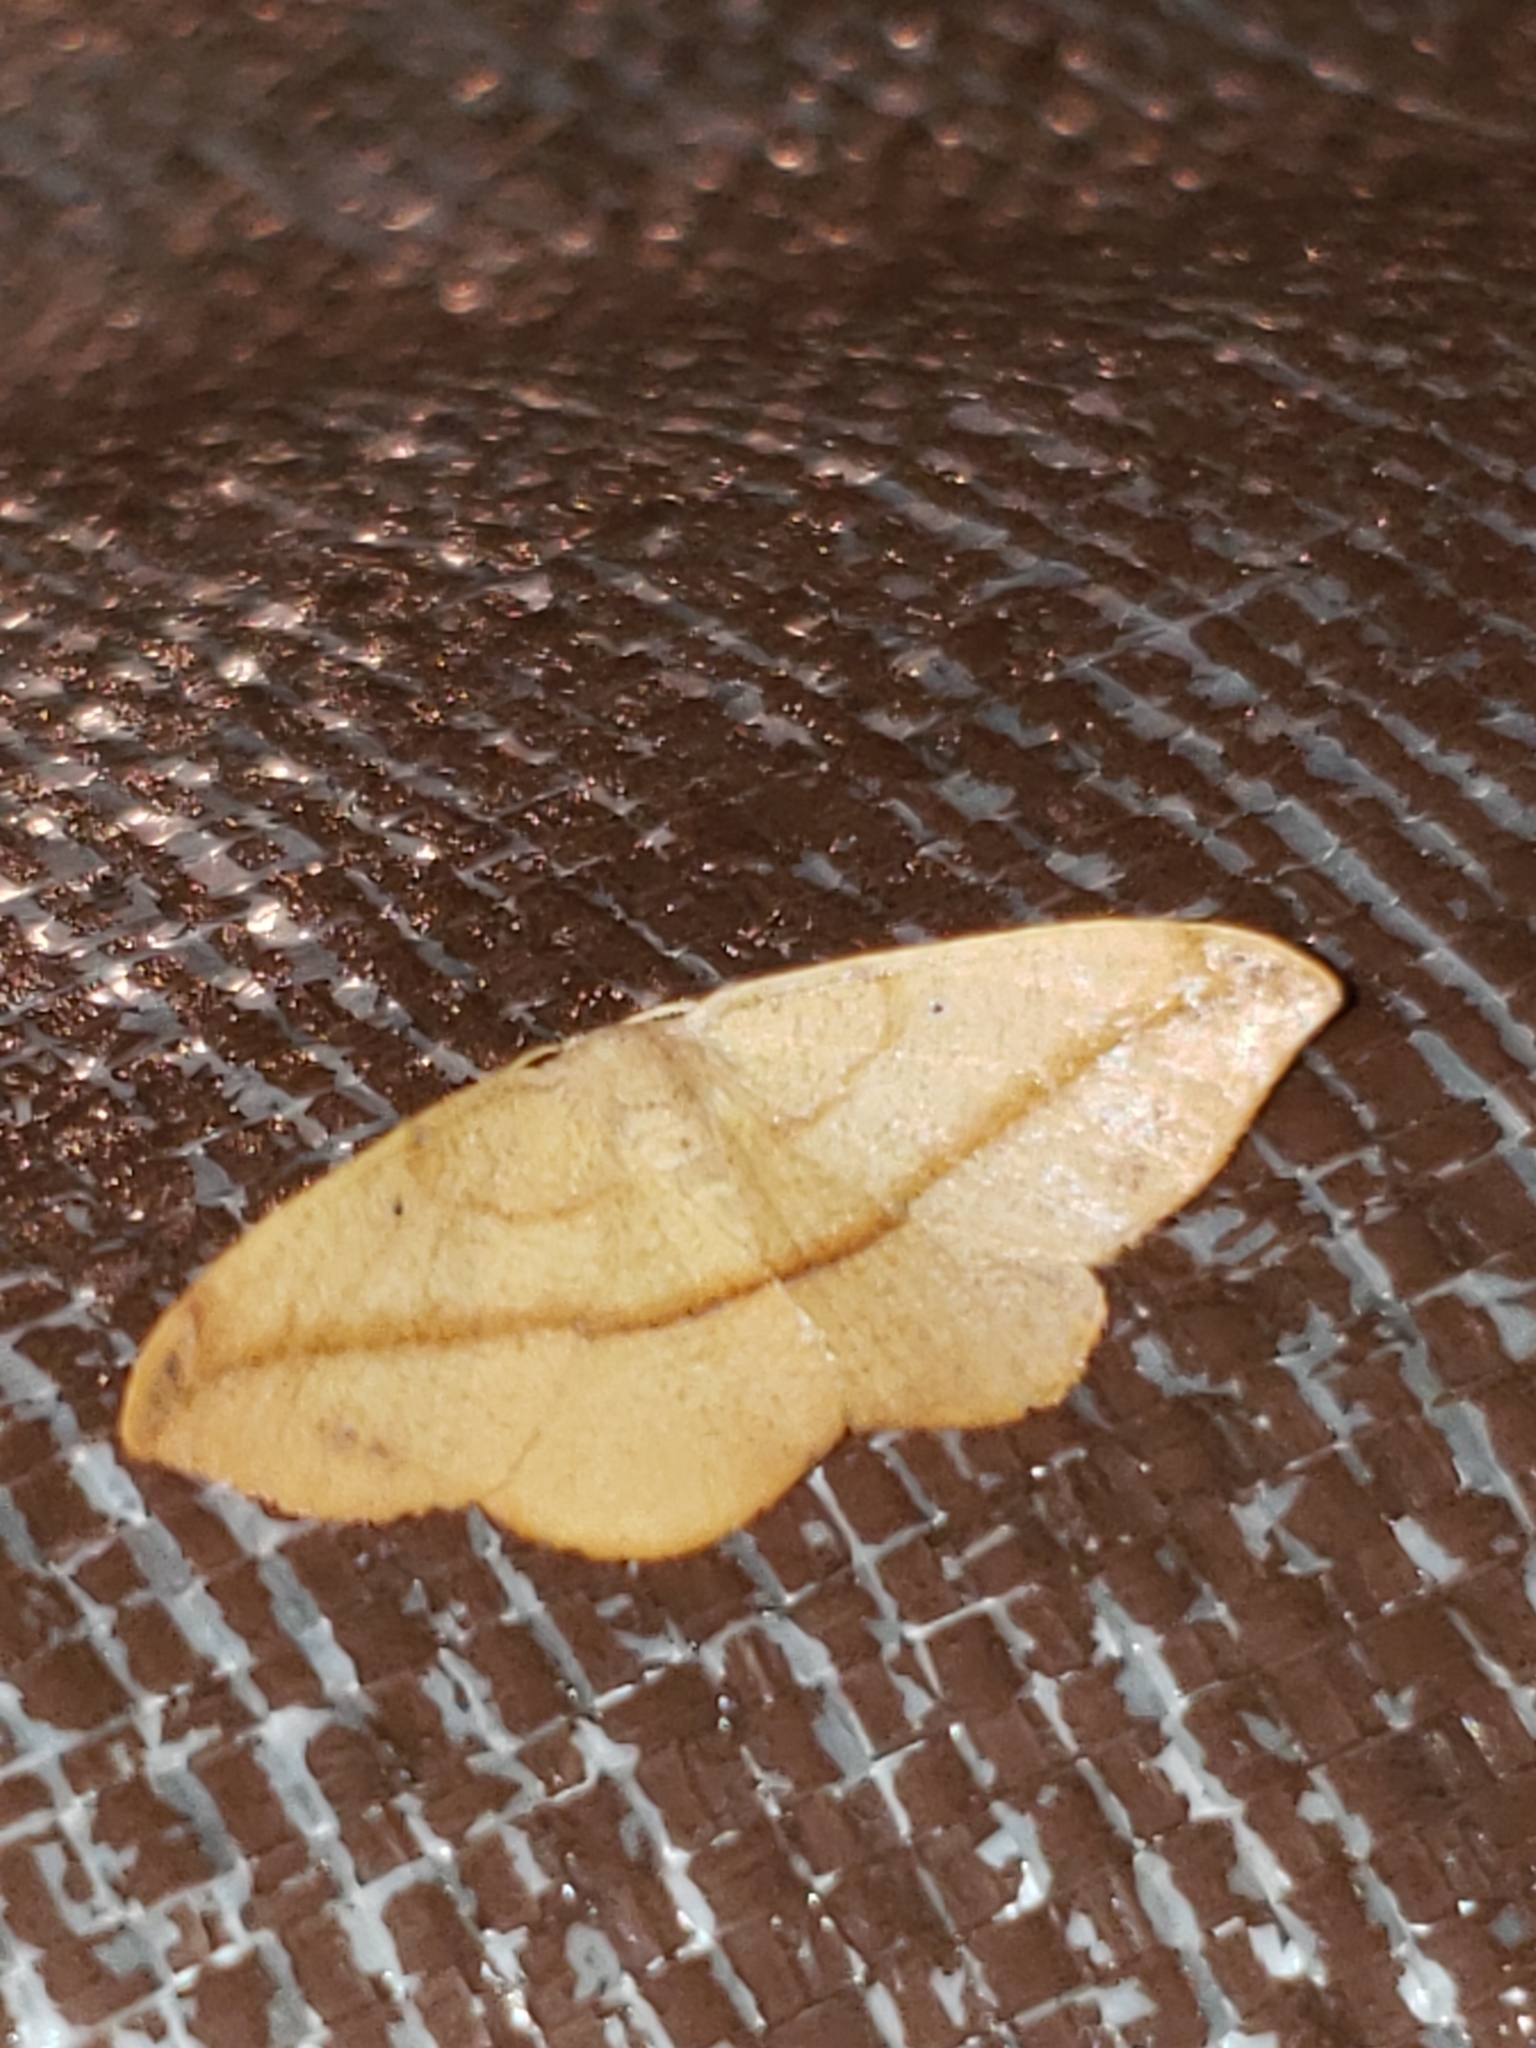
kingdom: Animalia
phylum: Arthropoda
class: Insecta
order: Lepidoptera
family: Geometridae
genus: Patalene
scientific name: Patalene olyzonaria
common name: Juniper geometer moth
